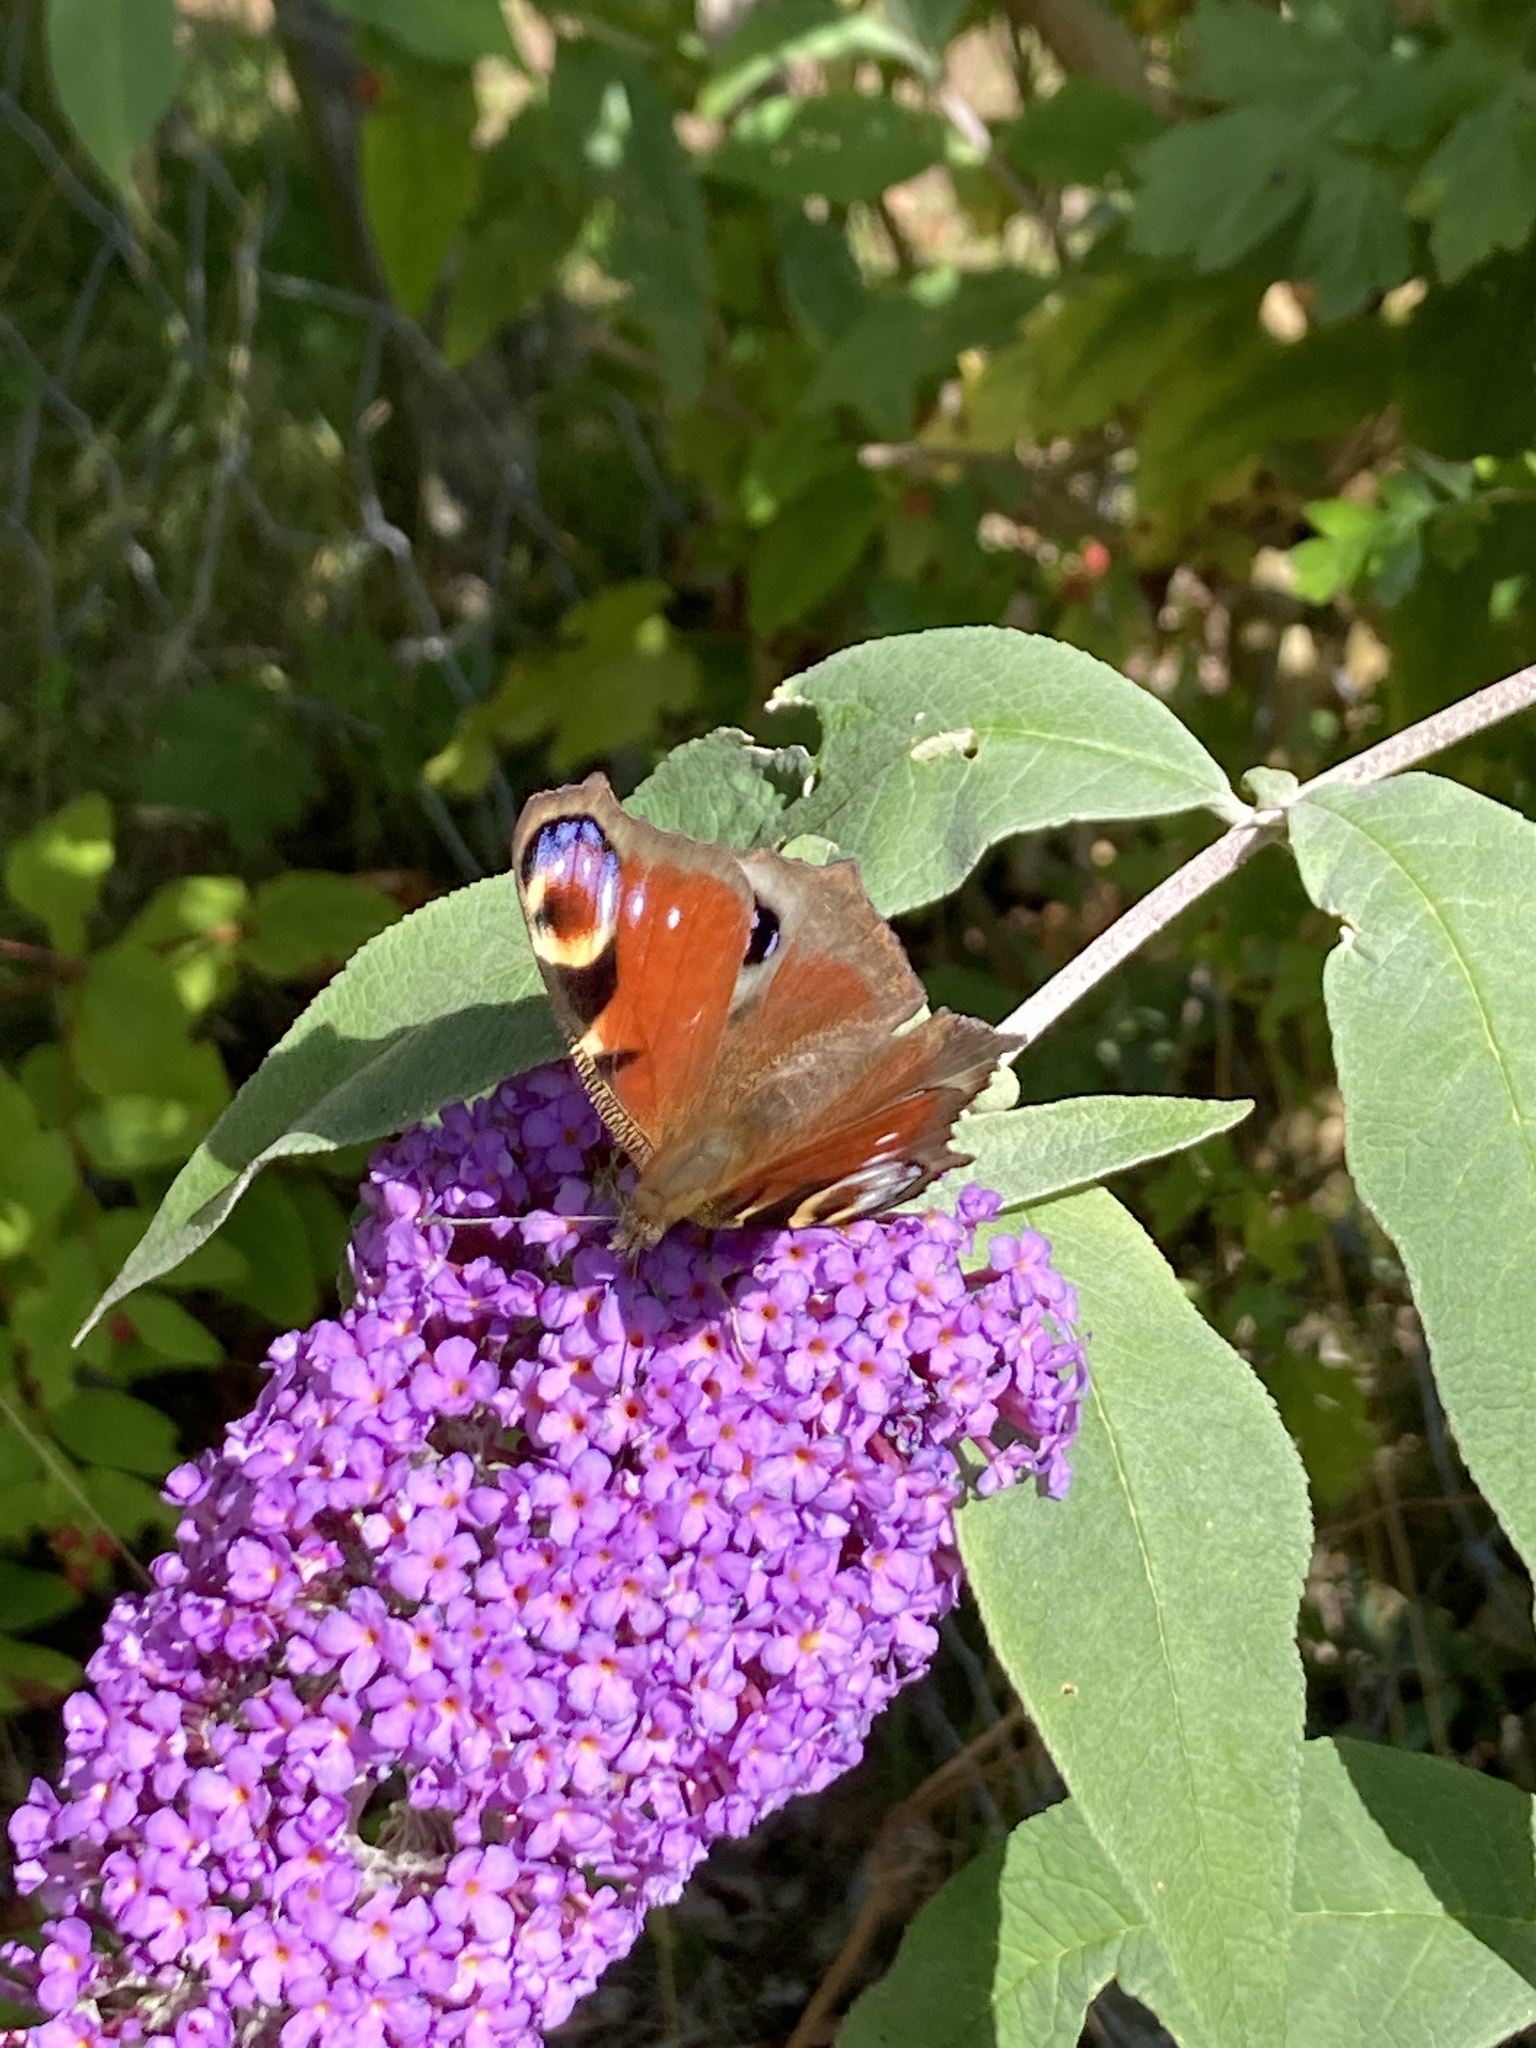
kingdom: Animalia
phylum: Arthropoda
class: Insecta
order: Lepidoptera
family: Nymphalidae
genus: Aglais
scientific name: Aglais io
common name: Peacock
